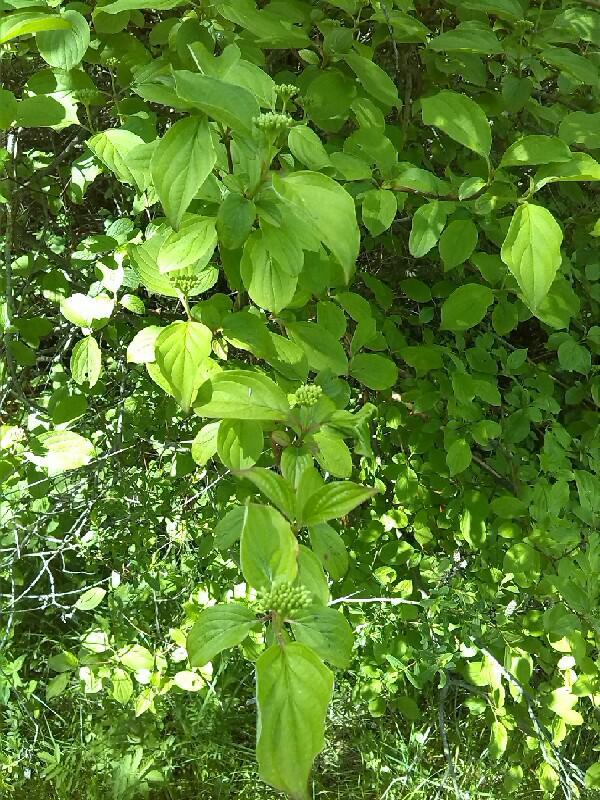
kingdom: Plantae
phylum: Tracheophyta
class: Magnoliopsida
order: Cornales
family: Cornaceae
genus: Cornus
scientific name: Cornus sanguinea
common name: Dogwood
